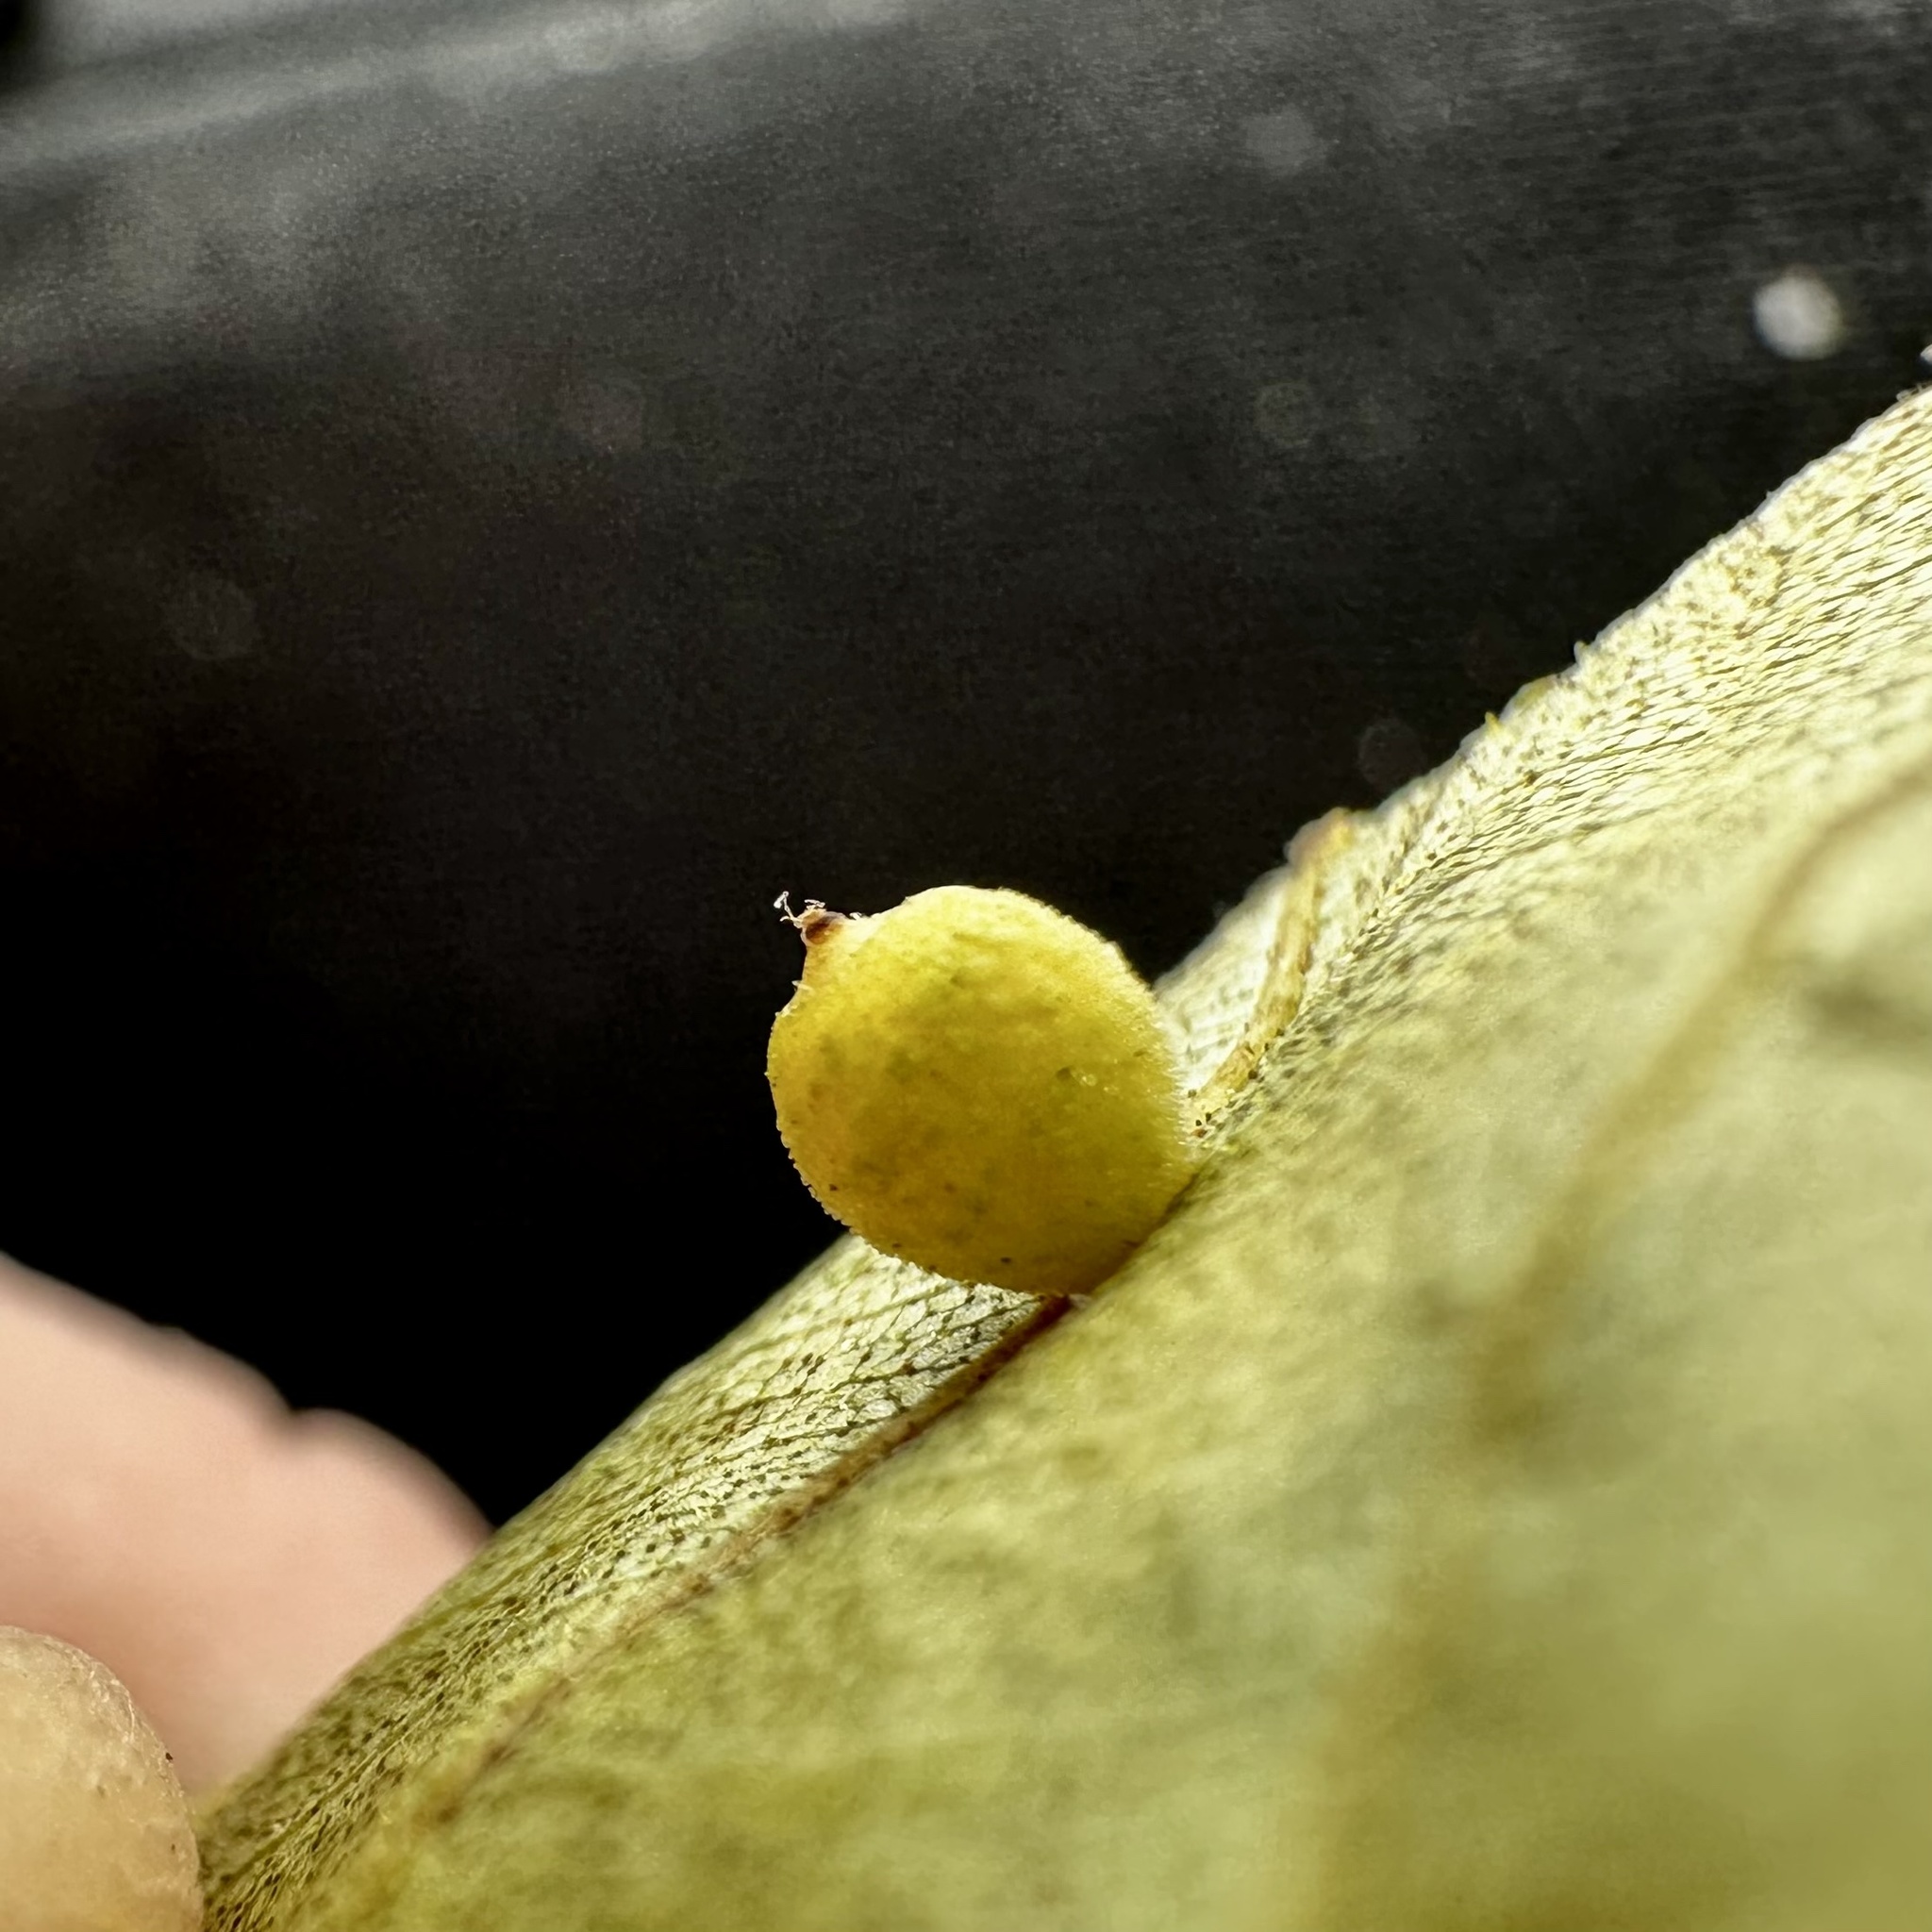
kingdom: Animalia
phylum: Arthropoda
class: Insecta
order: Diptera
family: Cecidomyiidae
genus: Caryomyia
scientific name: Caryomyia tuberidolium
